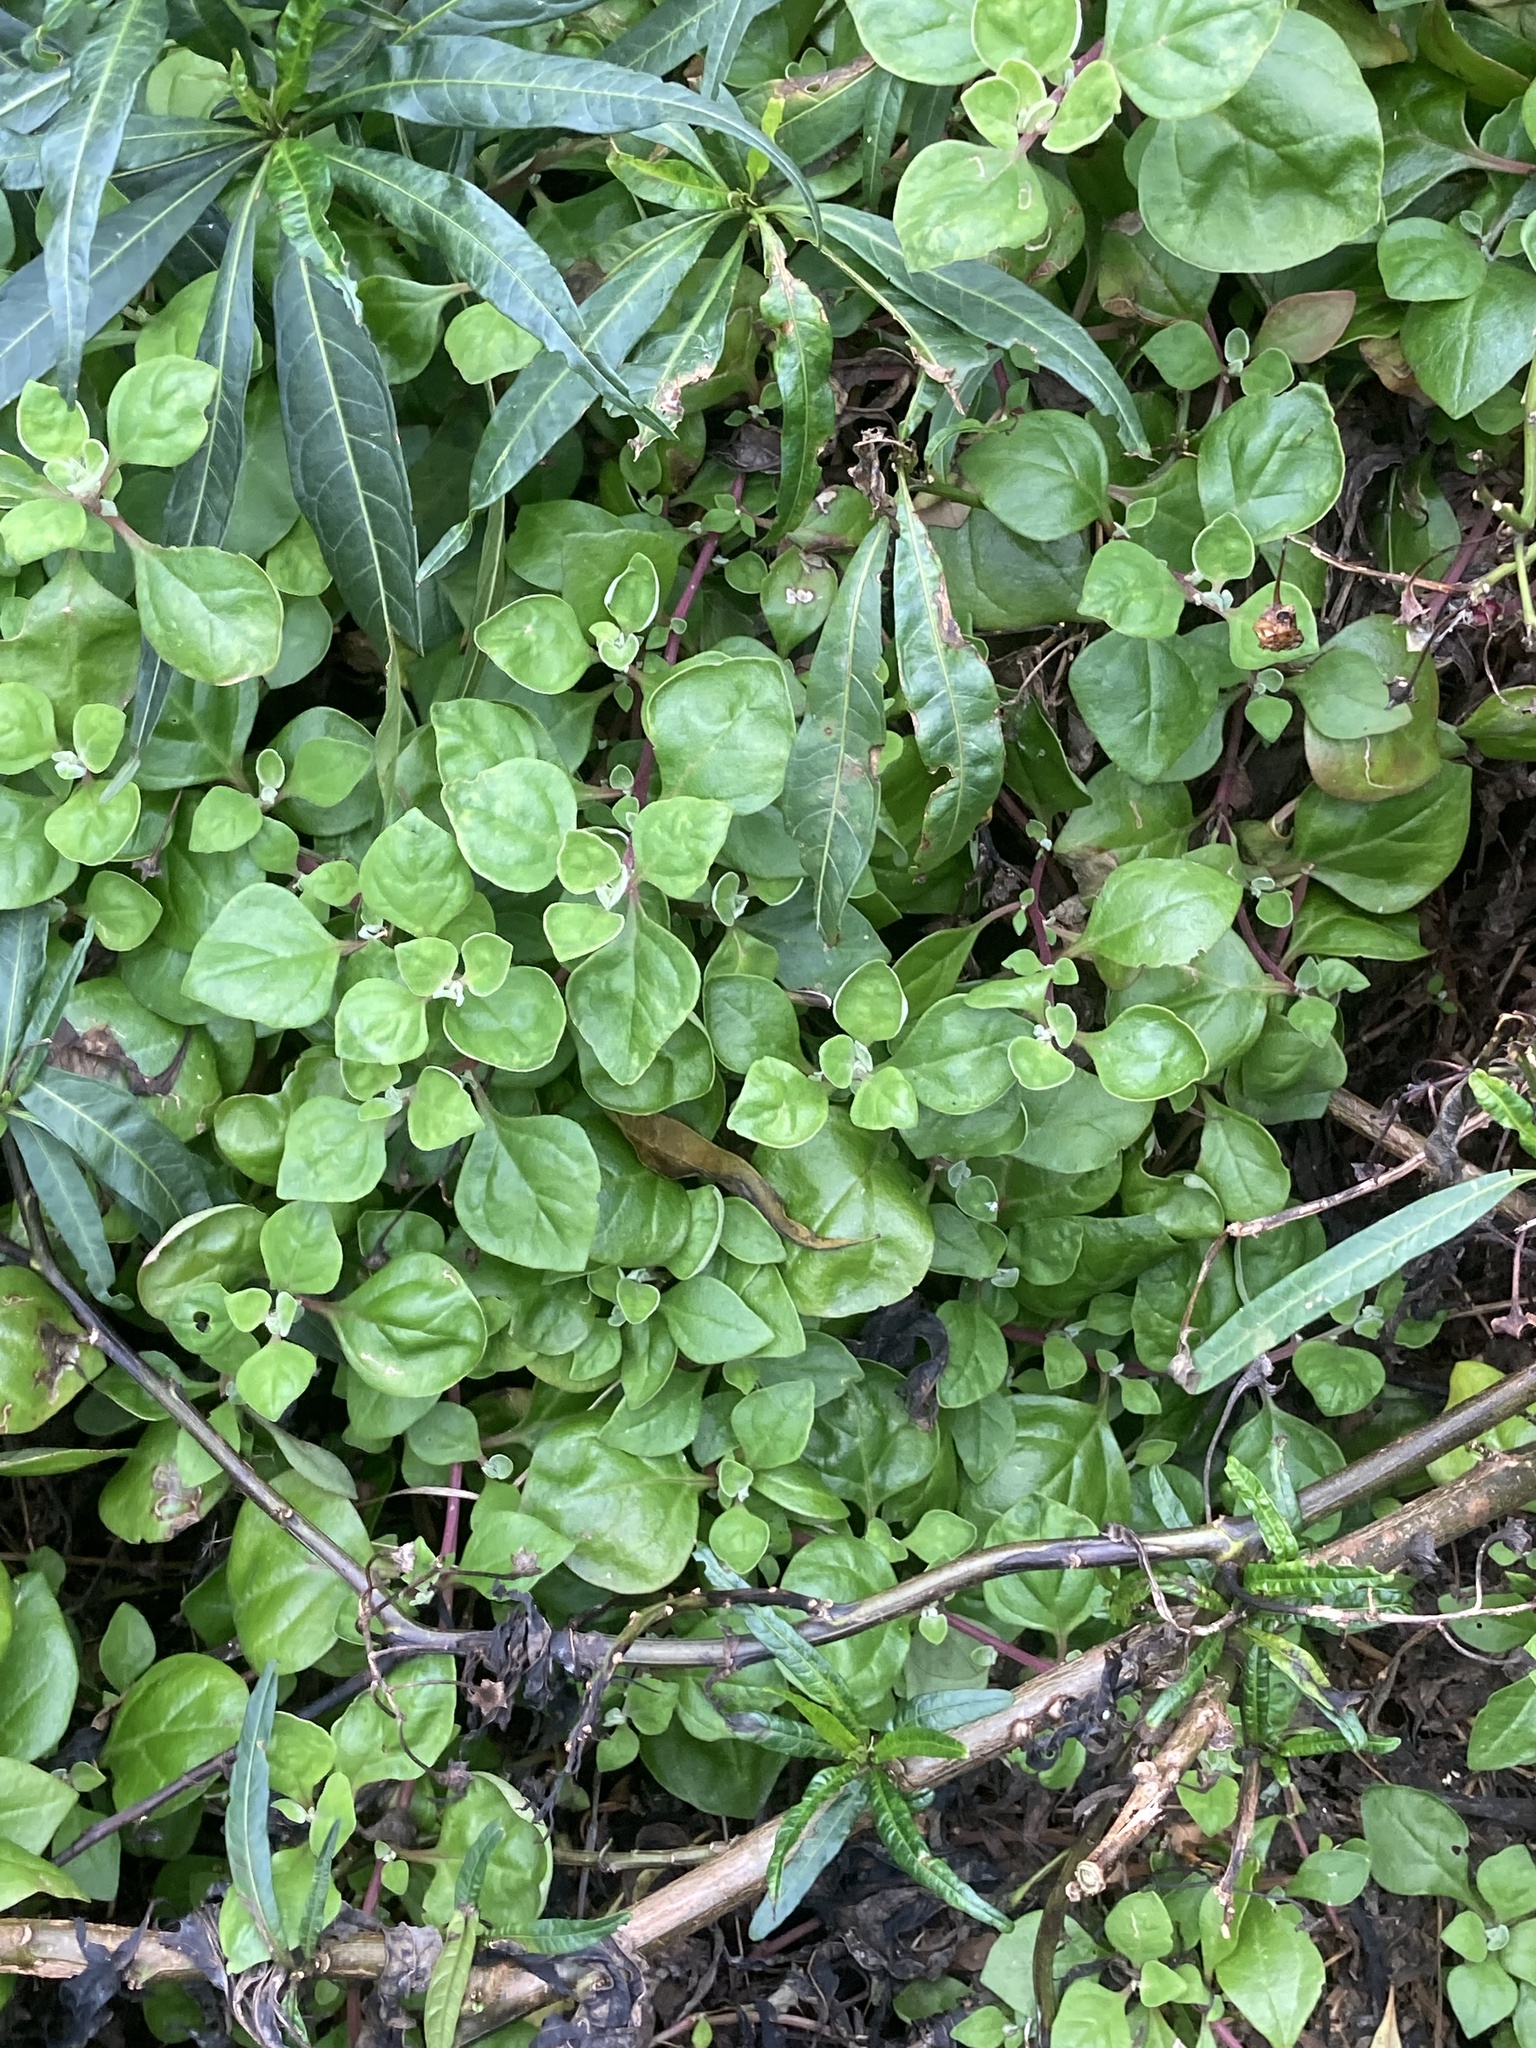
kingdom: Plantae
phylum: Tracheophyta
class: Magnoliopsida
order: Caryophyllales
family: Aizoaceae
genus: Tetragonia
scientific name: Tetragonia implexicoma
